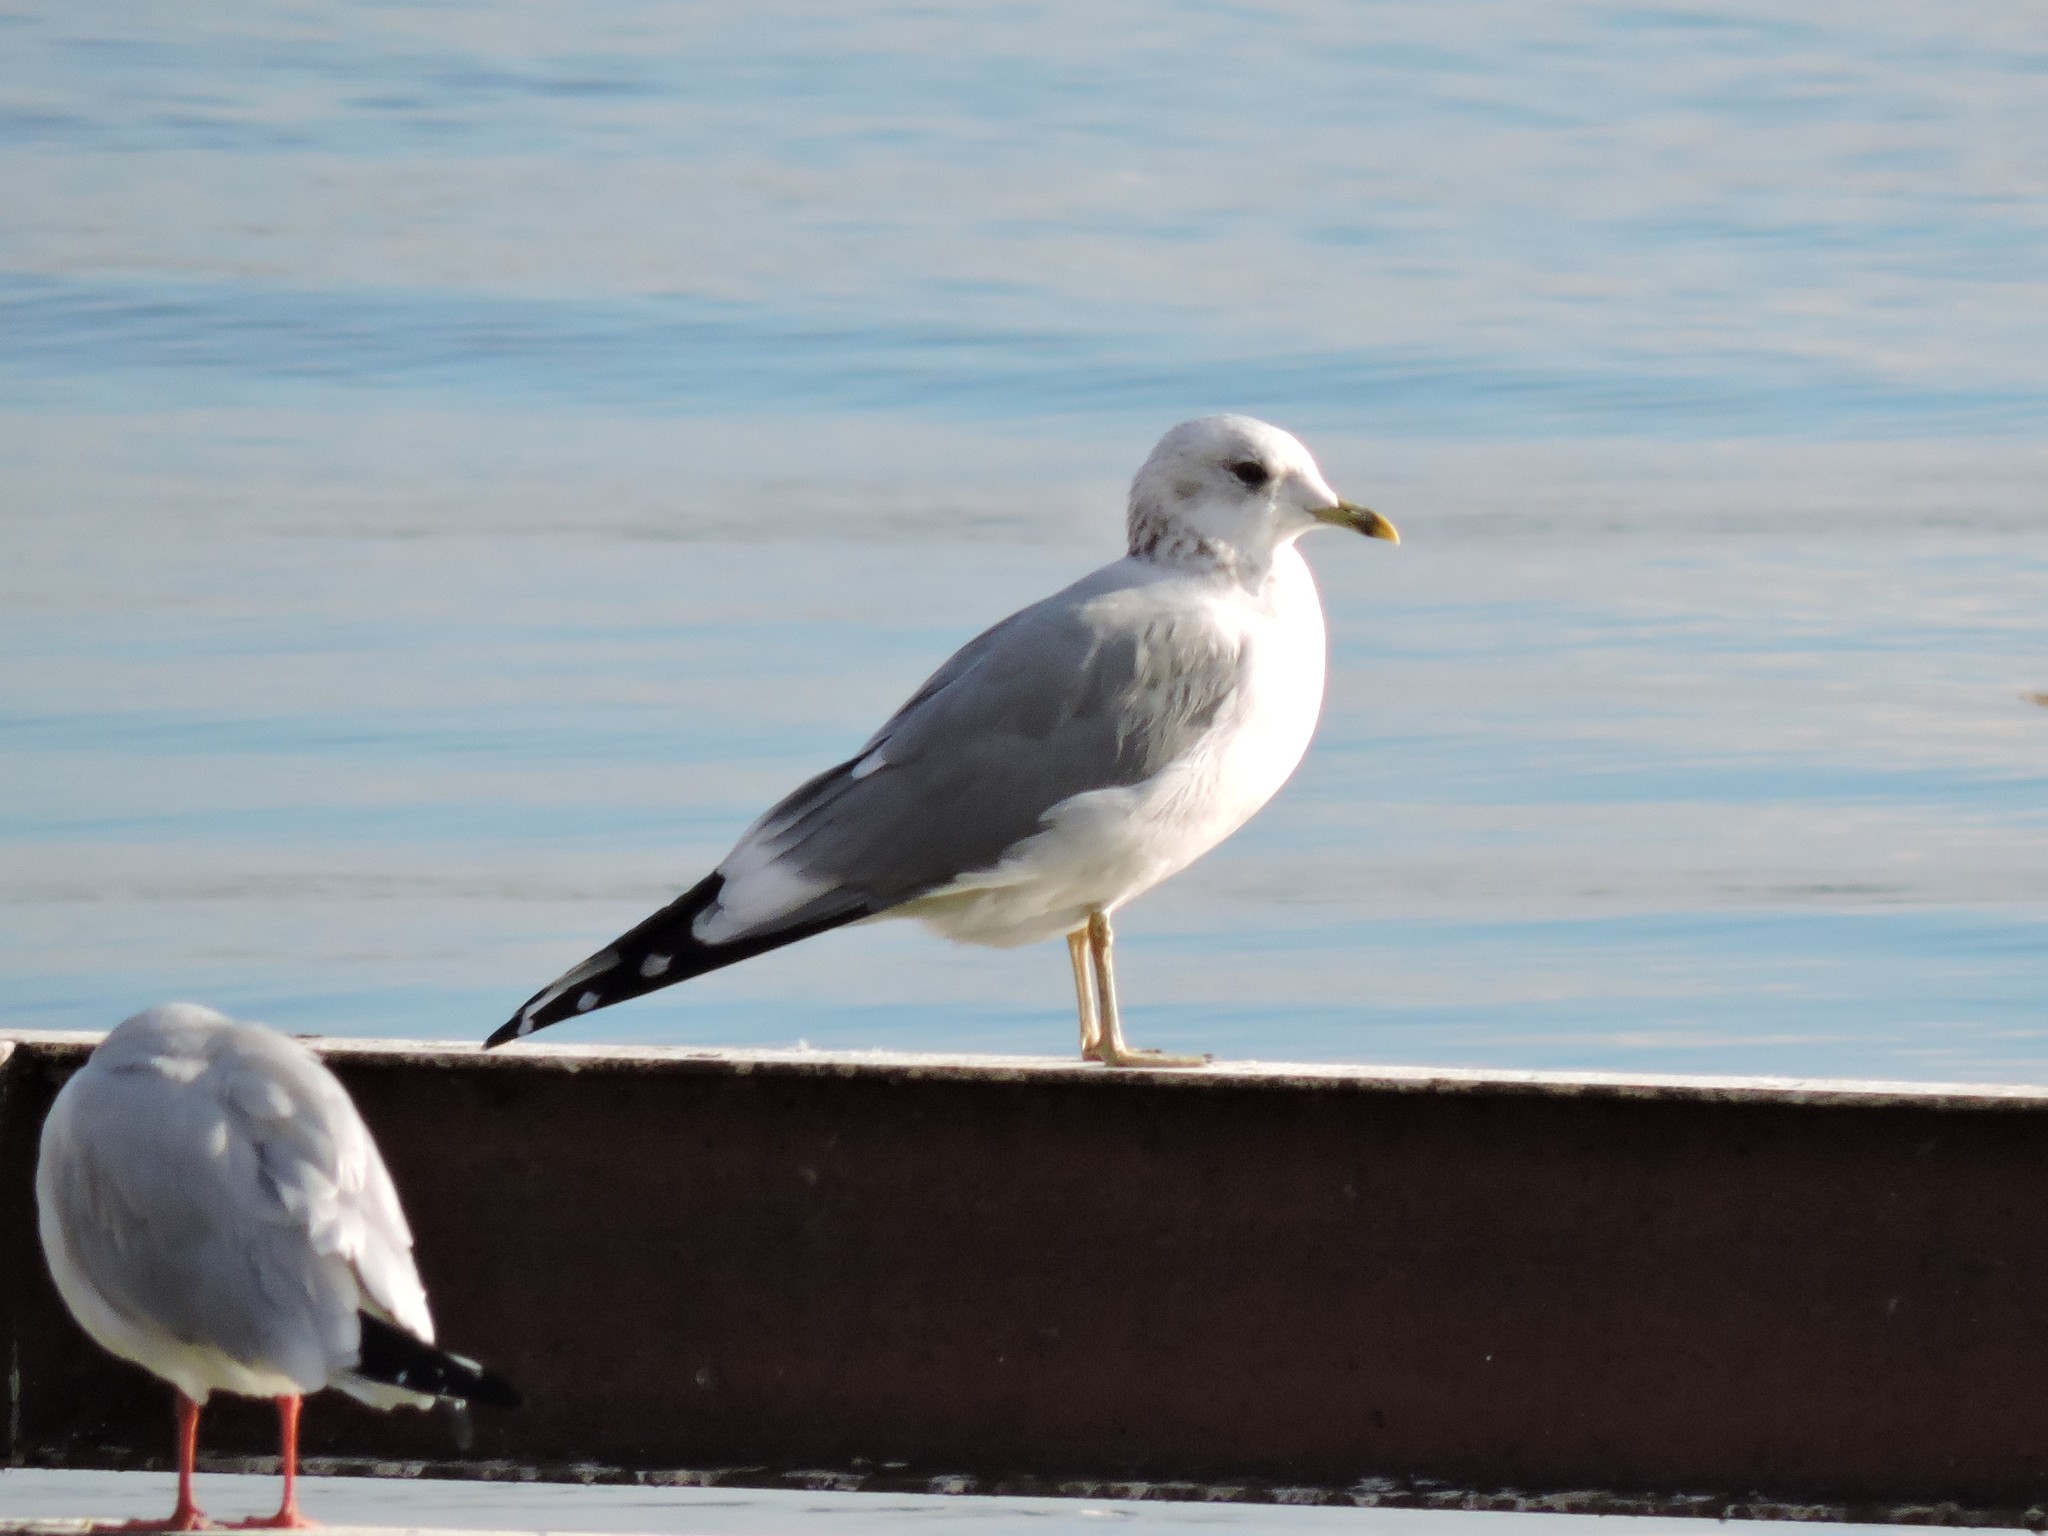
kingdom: Animalia
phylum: Chordata
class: Aves
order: Charadriiformes
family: Laridae
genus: Larus
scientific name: Larus canus
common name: Mew gull
